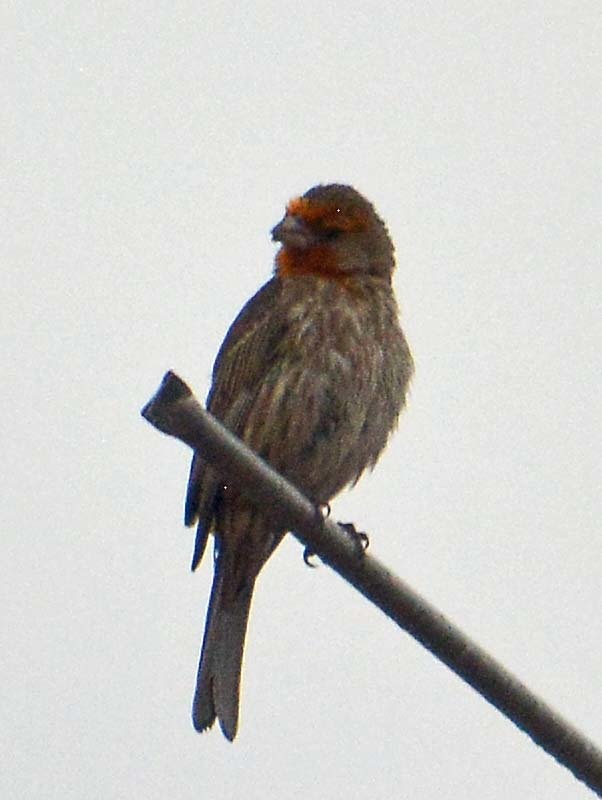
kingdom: Animalia
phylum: Chordata
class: Aves
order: Passeriformes
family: Fringillidae
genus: Haemorhous
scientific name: Haemorhous mexicanus
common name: House finch
